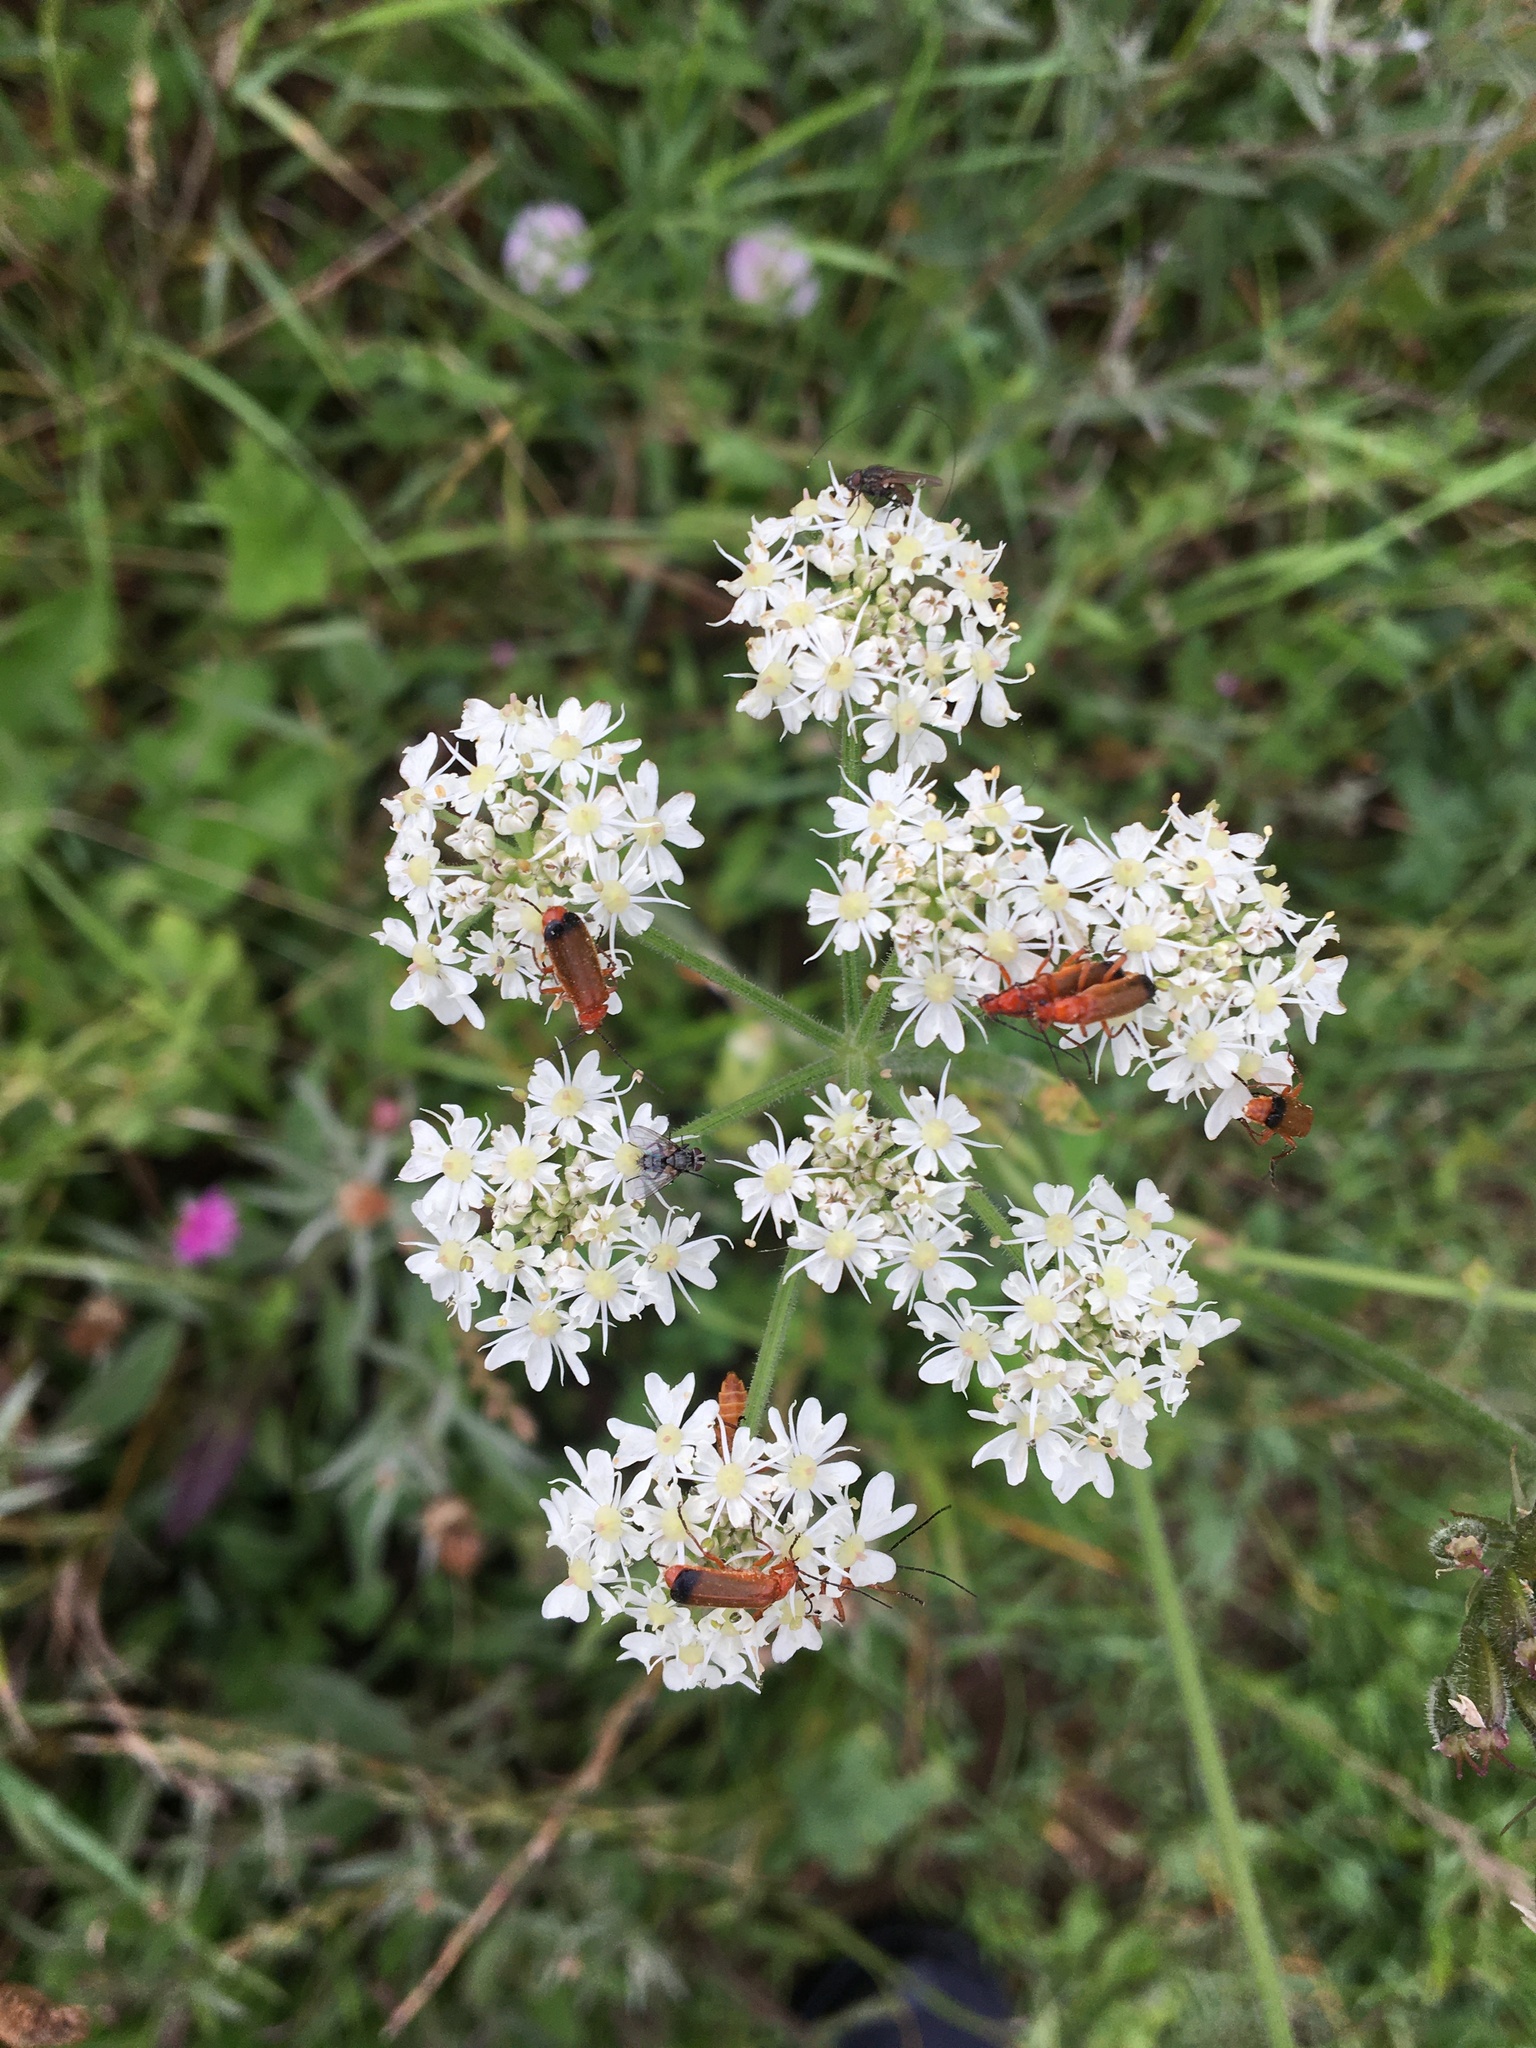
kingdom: Animalia
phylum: Arthropoda
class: Insecta
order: Coleoptera
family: Cantharidae
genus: Rhagonycha
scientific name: Rhagonycha fulva
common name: Common red soldier beetle
